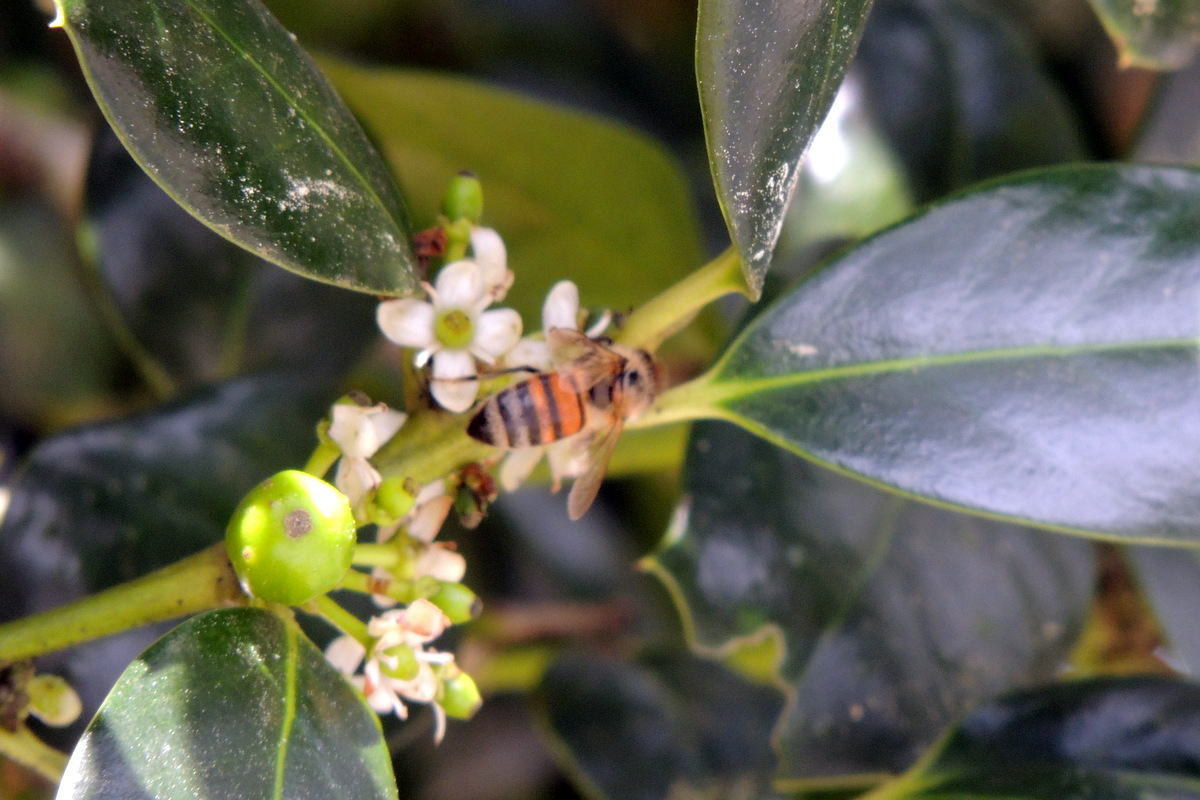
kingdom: Animalia
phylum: Arthropoda
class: Insecta
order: Hymenoptera
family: Apidae
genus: Apis
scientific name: Apis mellifera
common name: Honey bee
